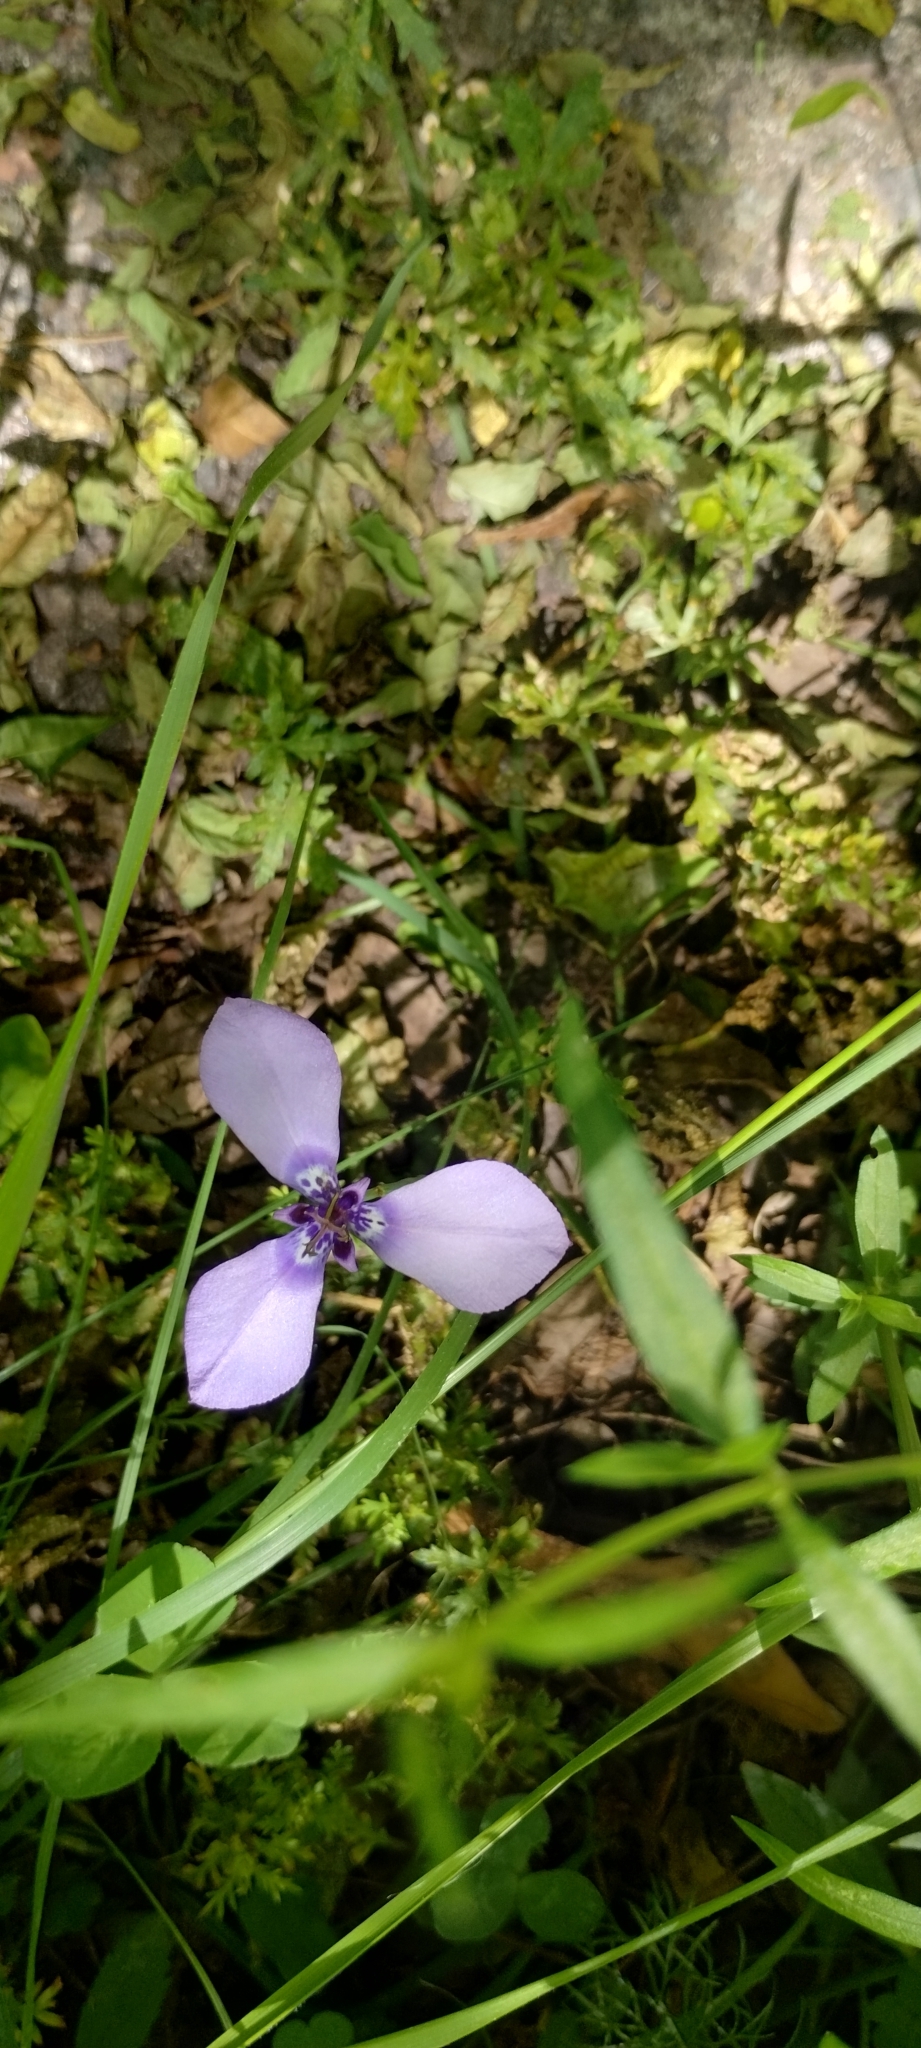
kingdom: Plantae
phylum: Tracheophyta
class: Liliopsida
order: Asparagales
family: Iridaceae
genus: Herbertia
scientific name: Herbertia lahue
